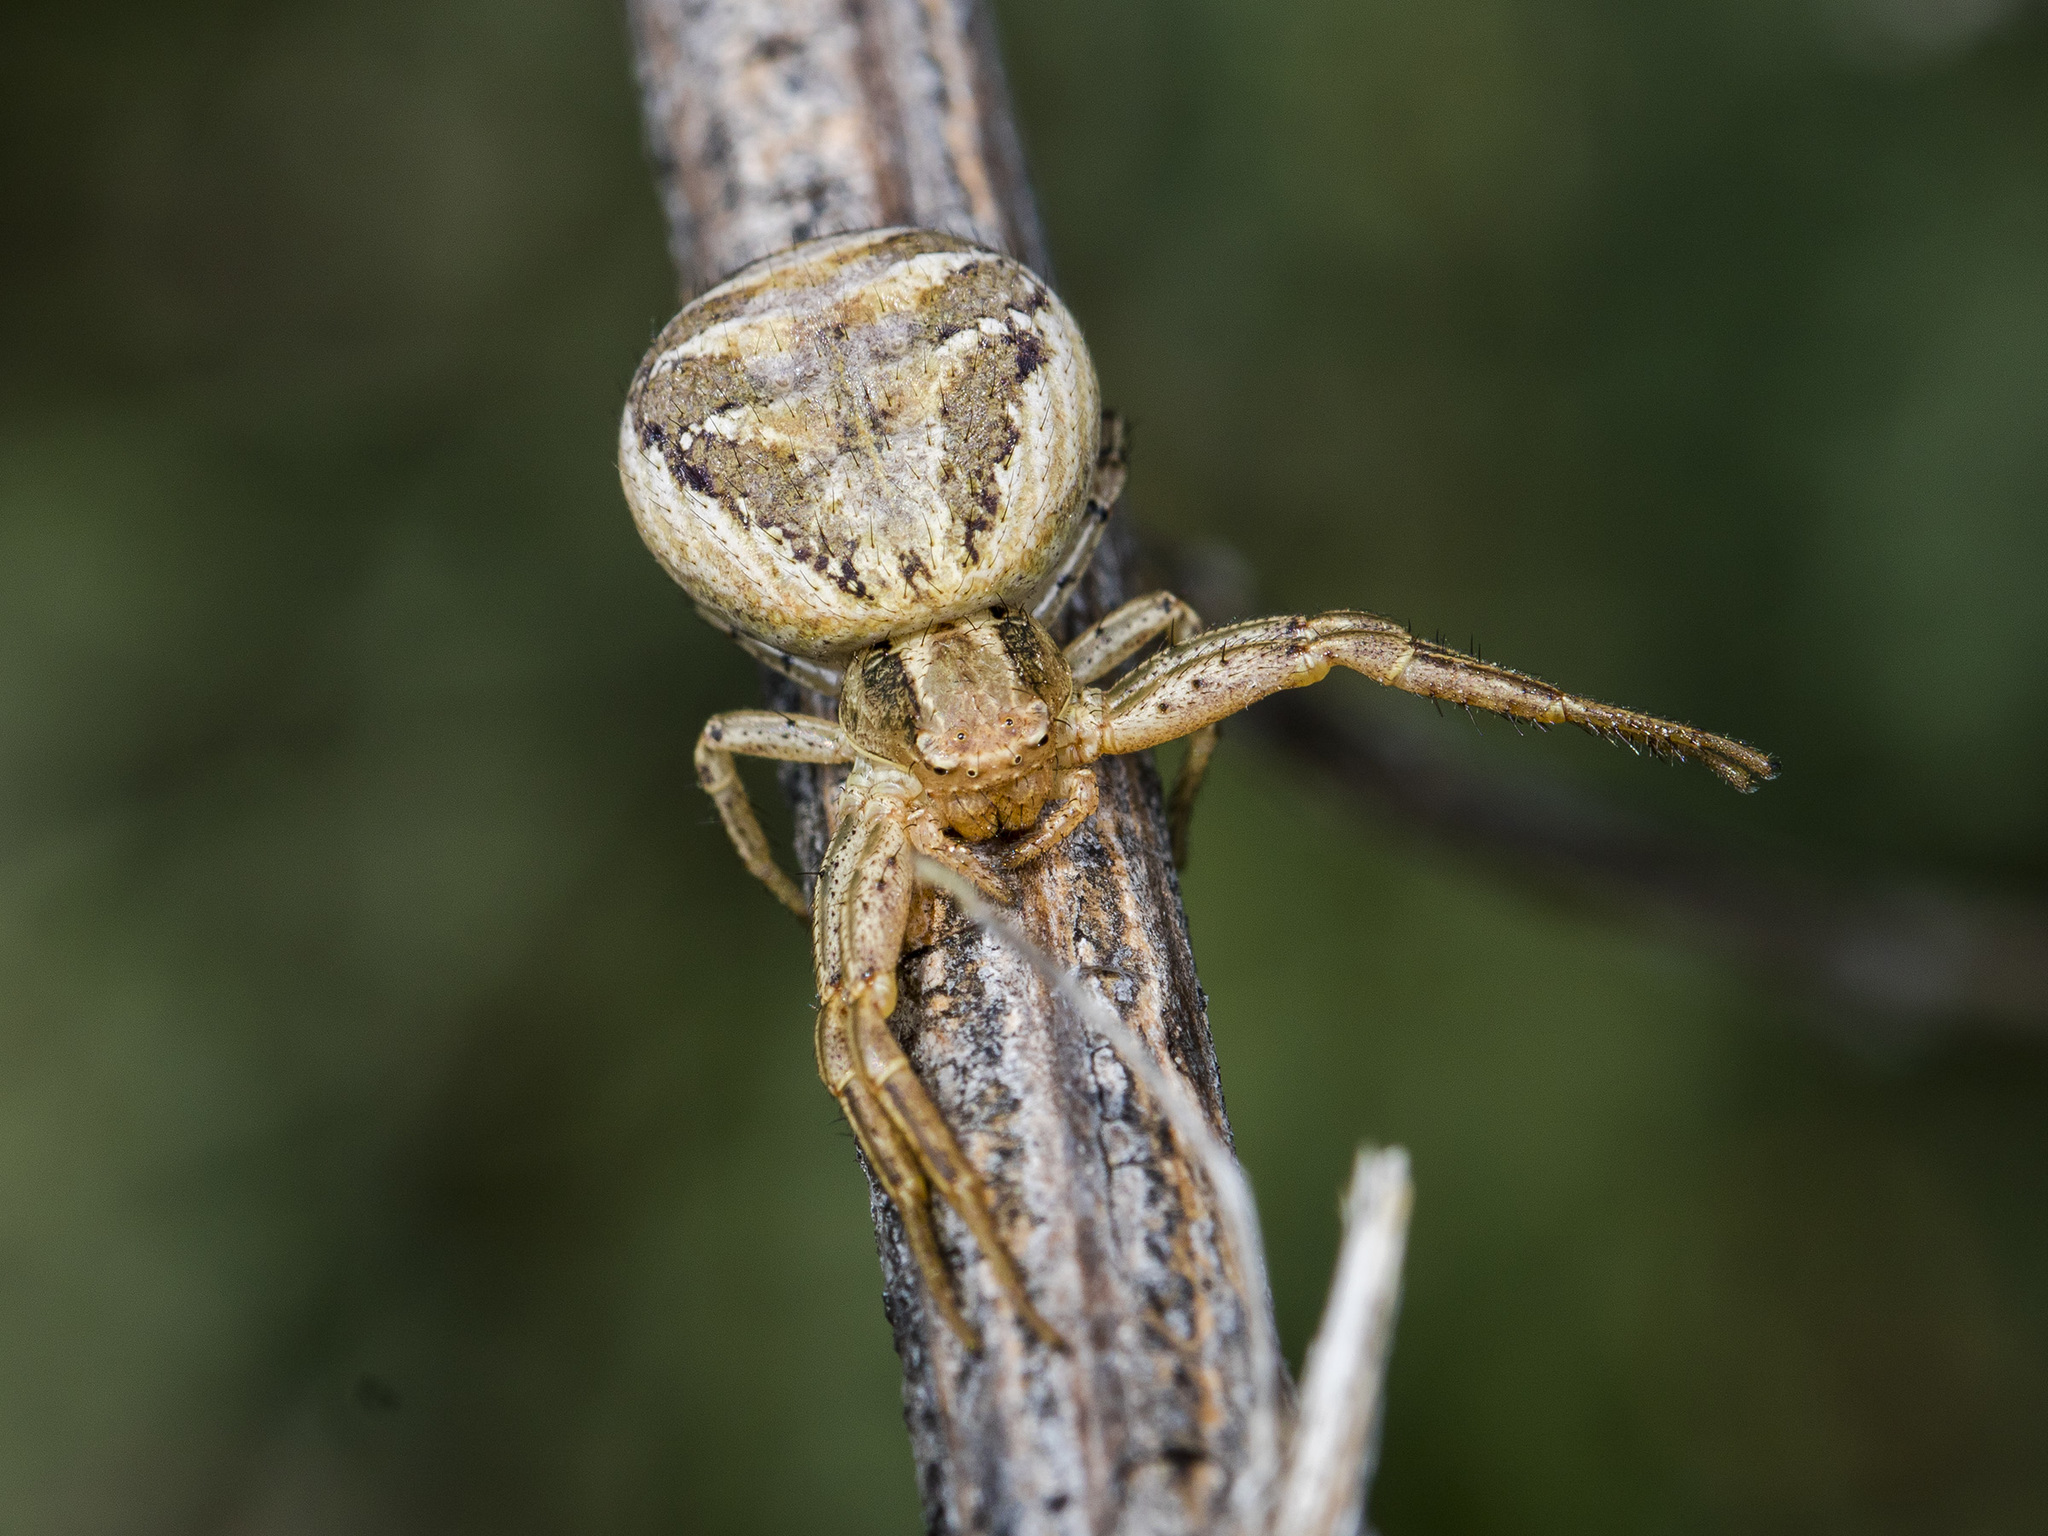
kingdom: Animalia
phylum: Arthropoda
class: Arachnida
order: Araneae
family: Thomisidae
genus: Xysticus
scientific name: Xysticus pseudocristatus
